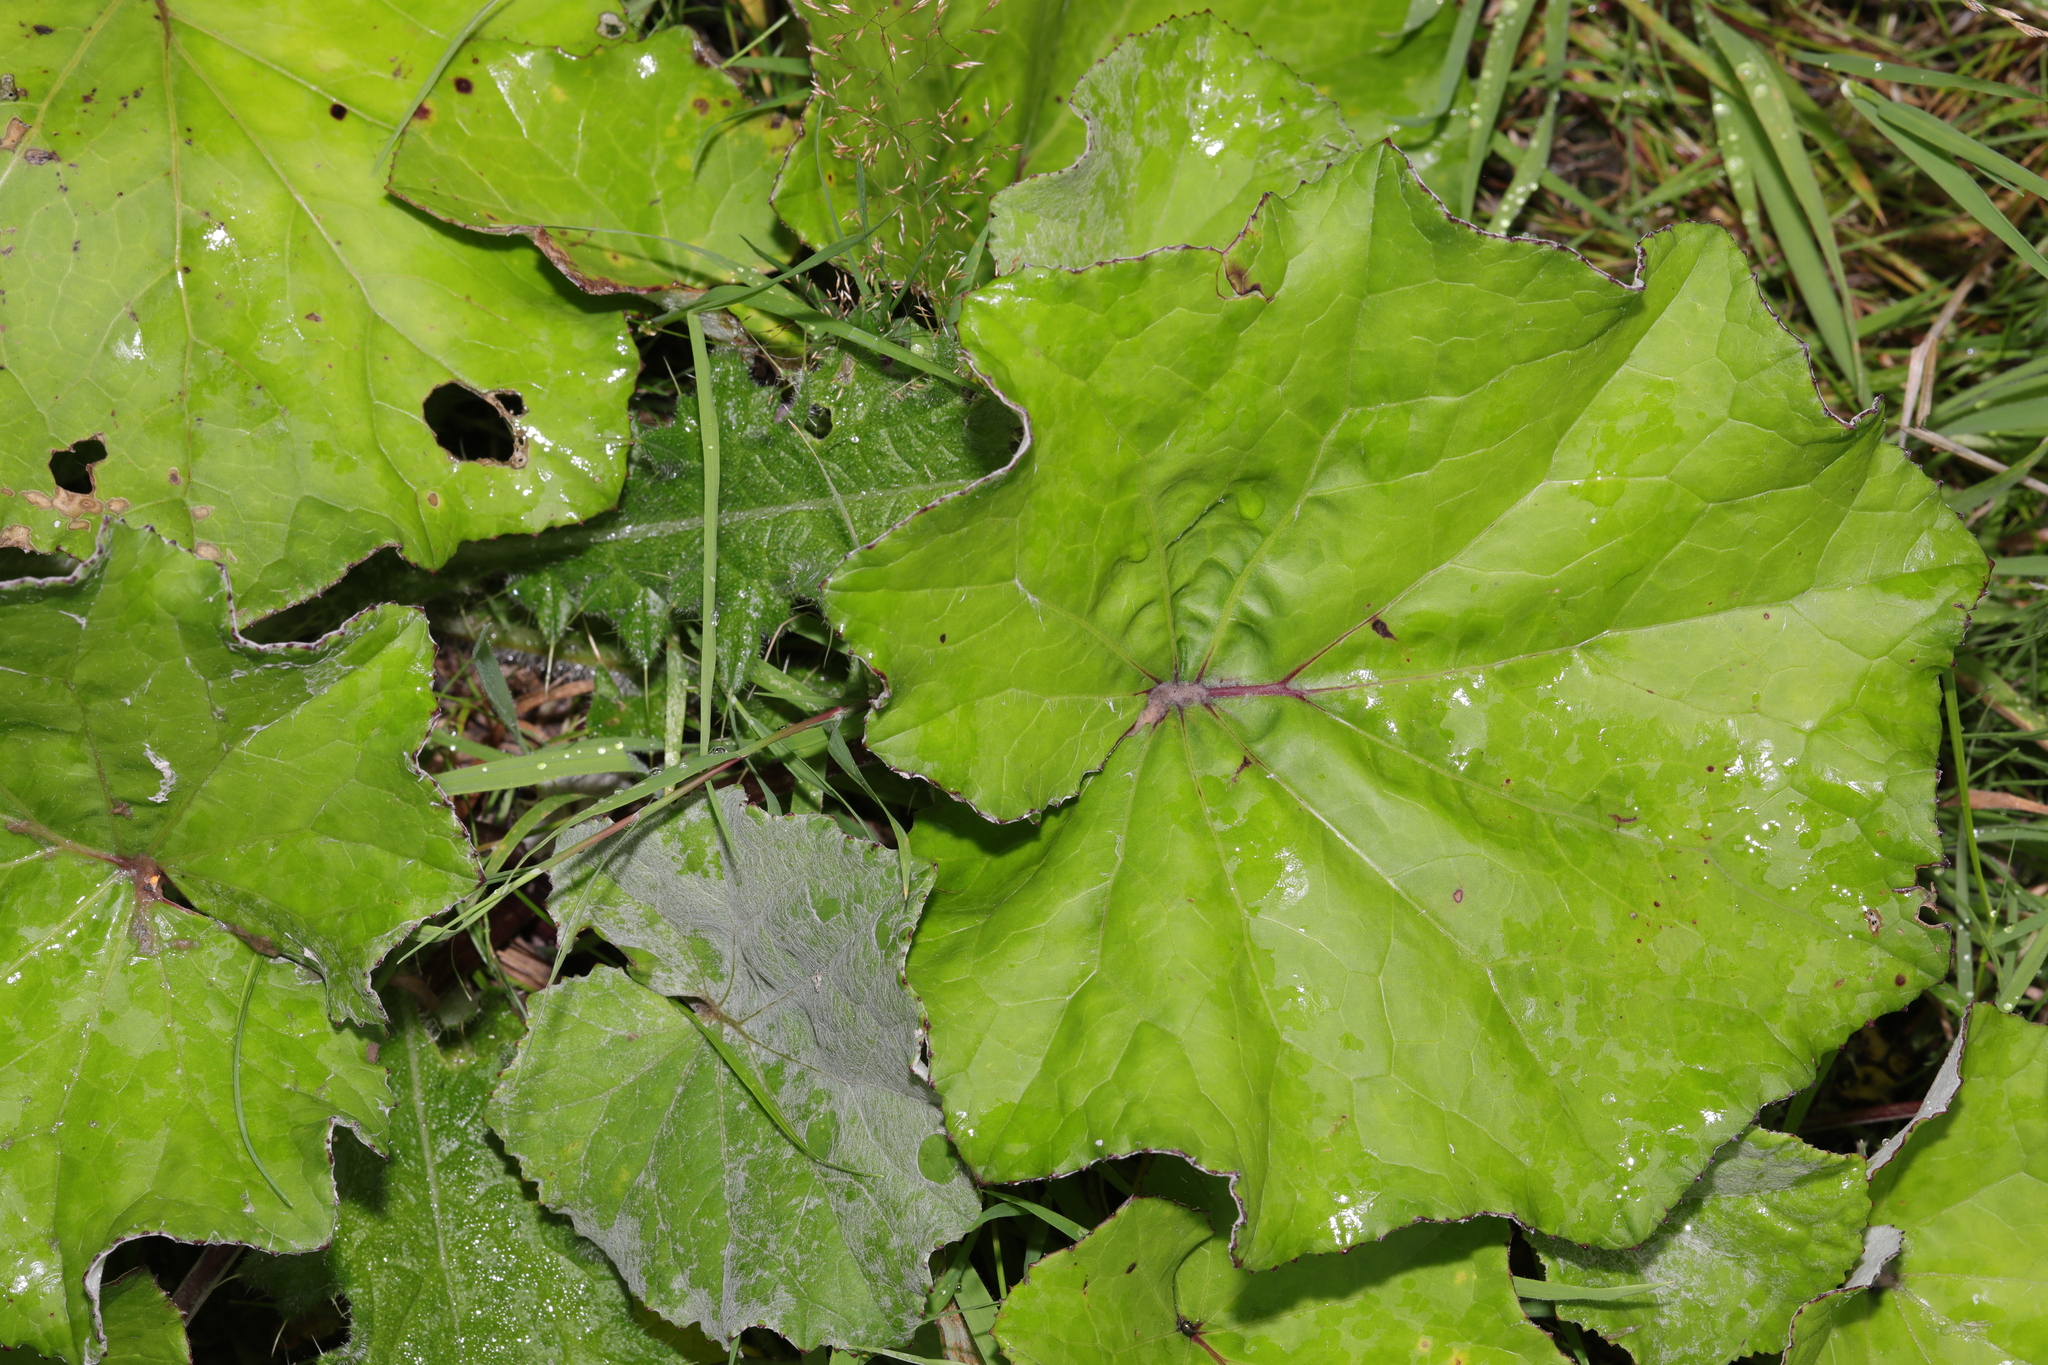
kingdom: Plantae
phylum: Tracheophyta
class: Magnoliopsida
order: Asterales
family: Asteraceae
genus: Tussilago
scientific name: Tussilago farfara
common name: Coltsfoot
